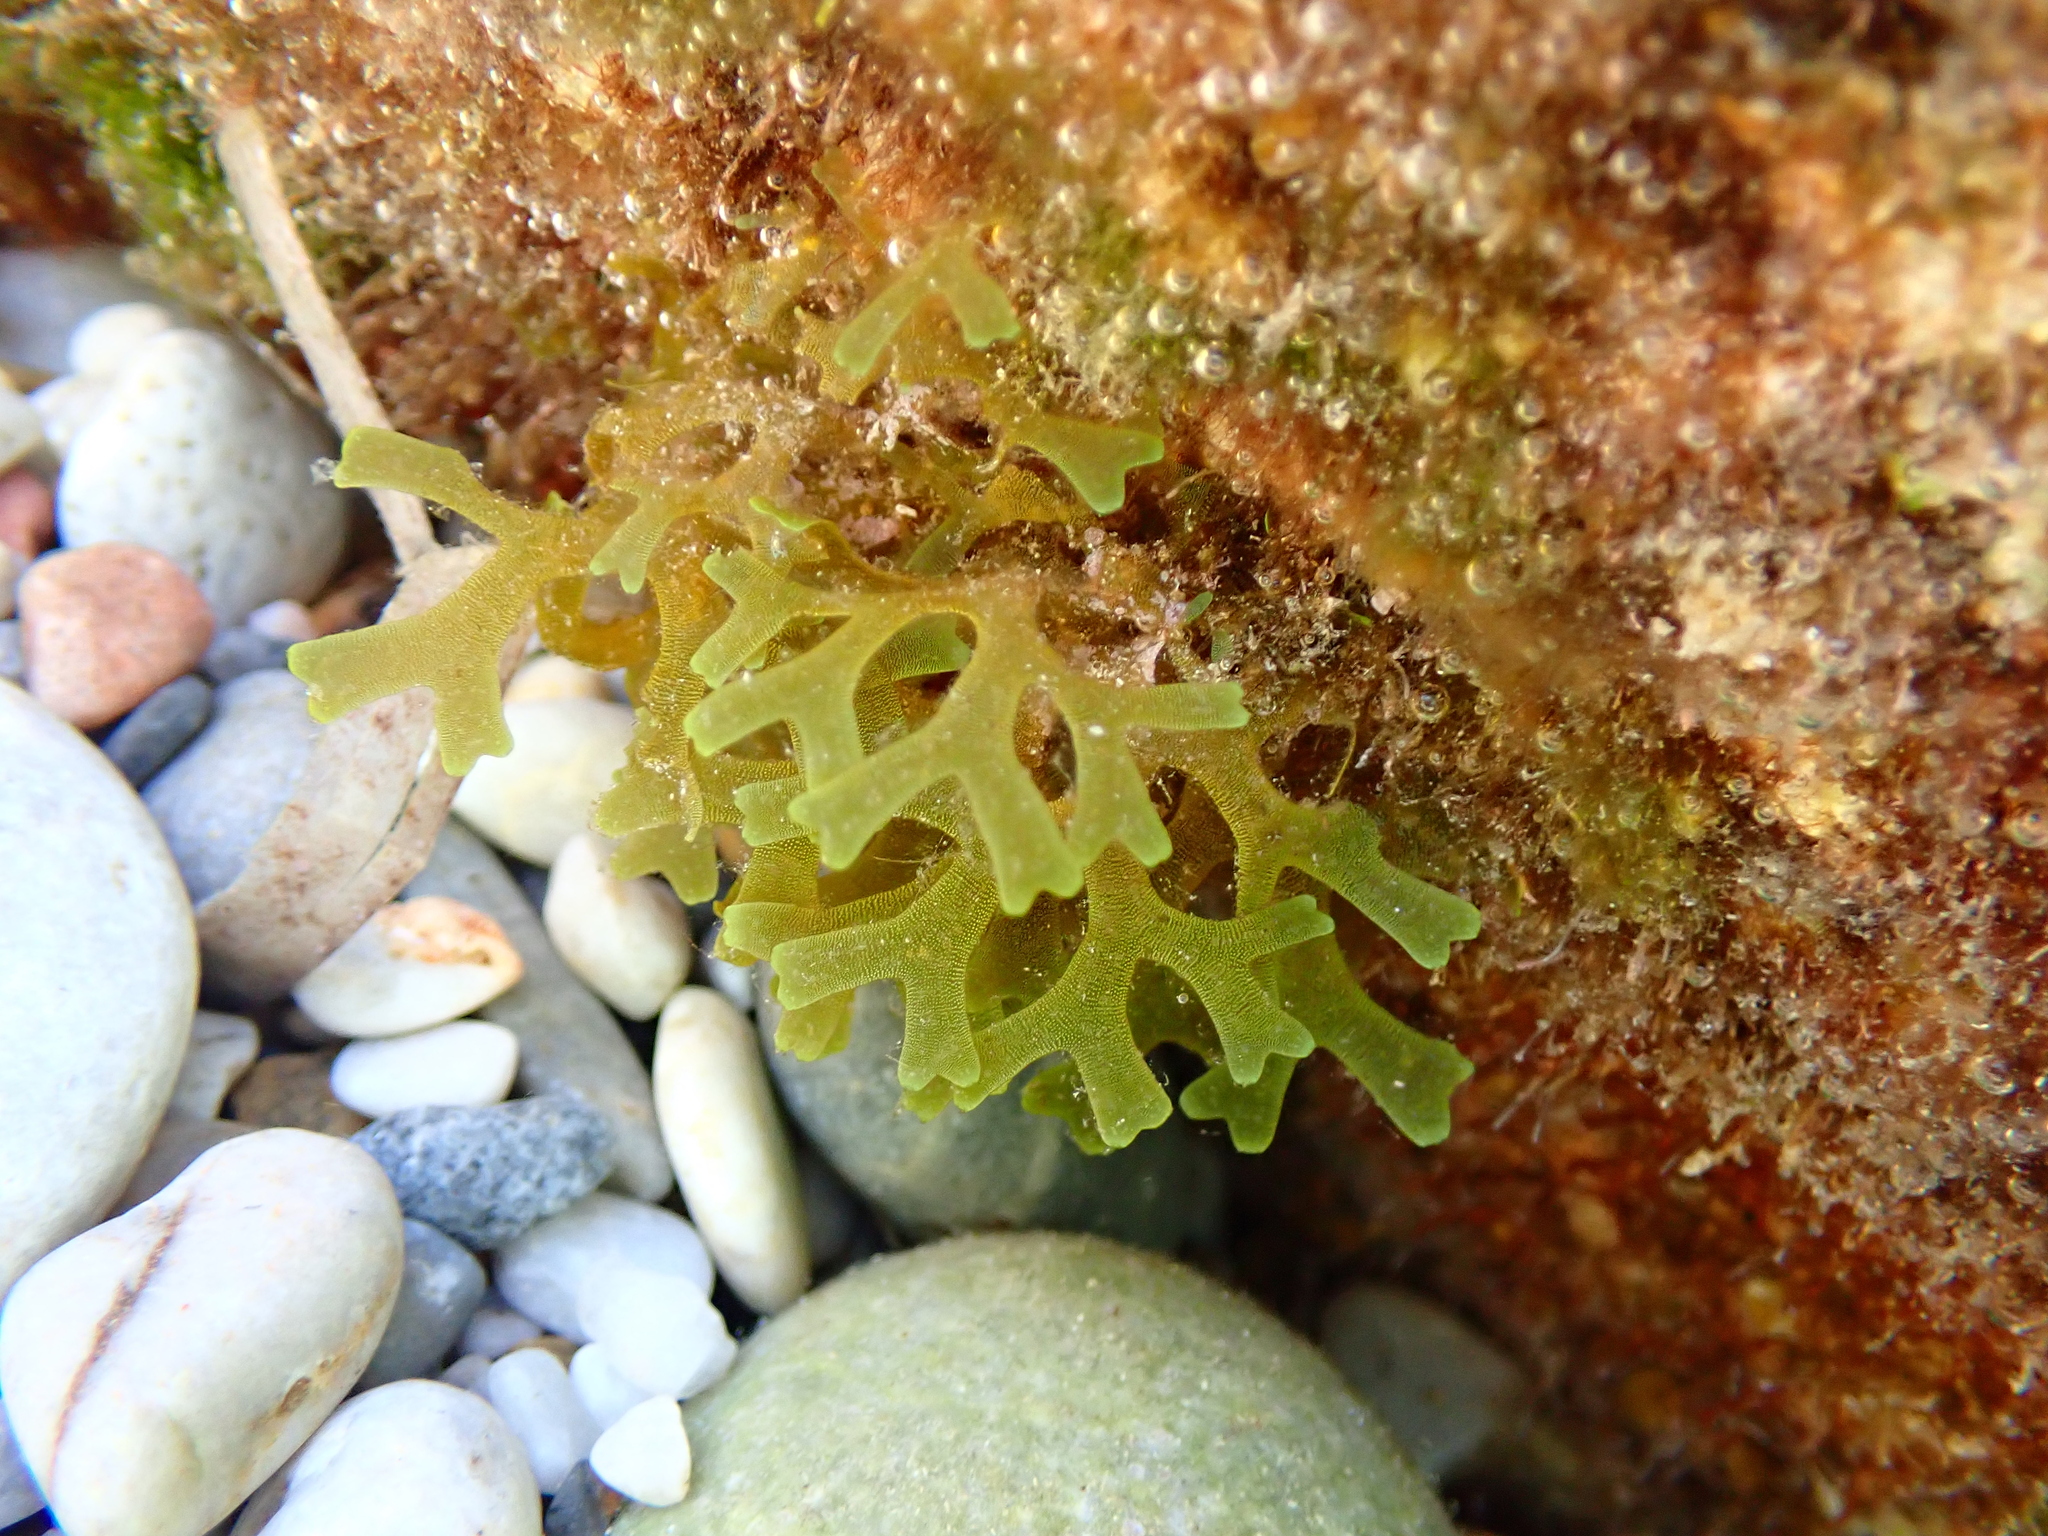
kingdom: Chromista
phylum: Ochrophyta
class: Phaeophyceae
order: Dictyotales
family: Dictyotaceae
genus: Dictyota
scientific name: Dictyota dichotoma
